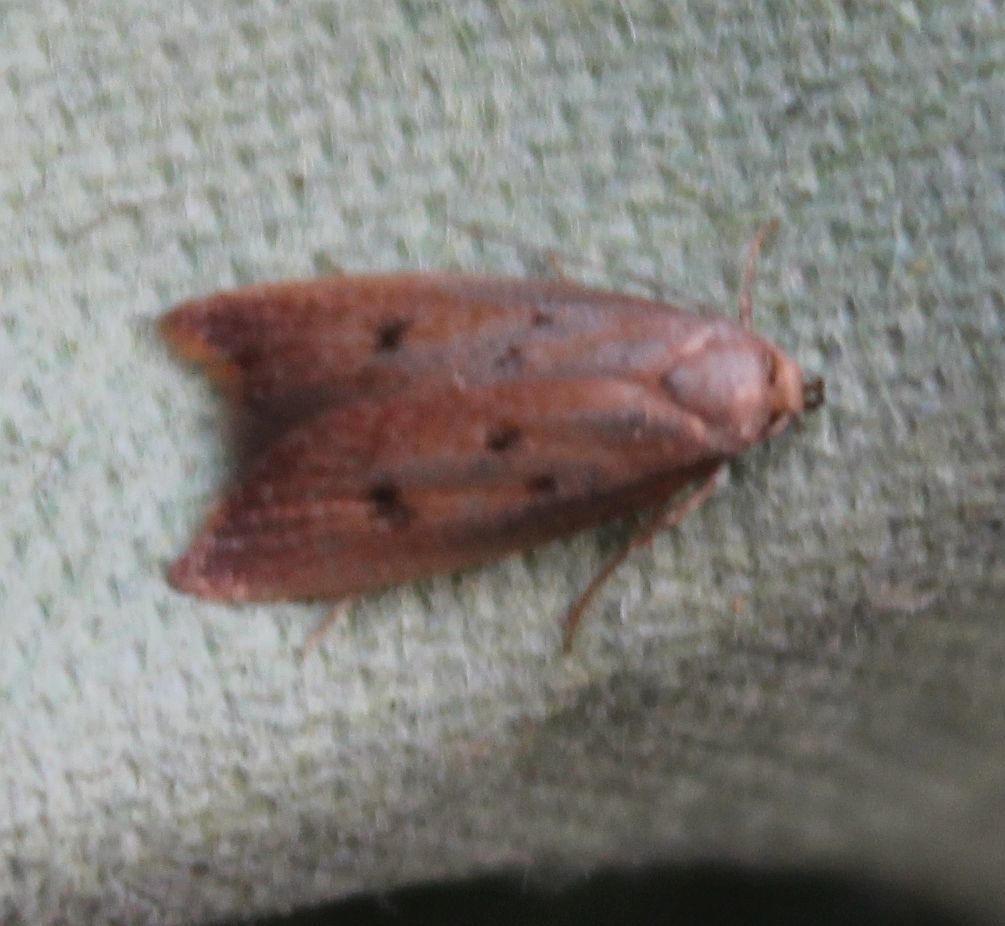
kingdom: Animalia
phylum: Arthropoda
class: Insecta
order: Lepidoptera
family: Oecophoridae
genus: Tachystola
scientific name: Tachystola acroxantha
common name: Ruddy streak
